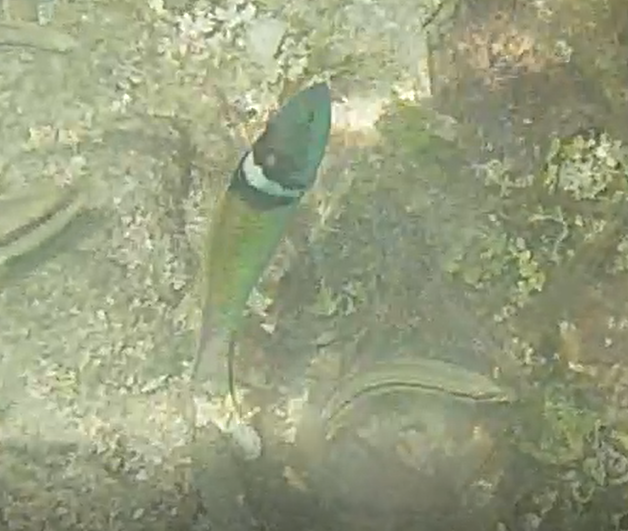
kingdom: Animalia
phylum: Chordata
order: Perciformes
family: Labridae
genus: Thalassoma
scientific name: Thalassoma bifasciatum
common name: Bluehead wrasse
